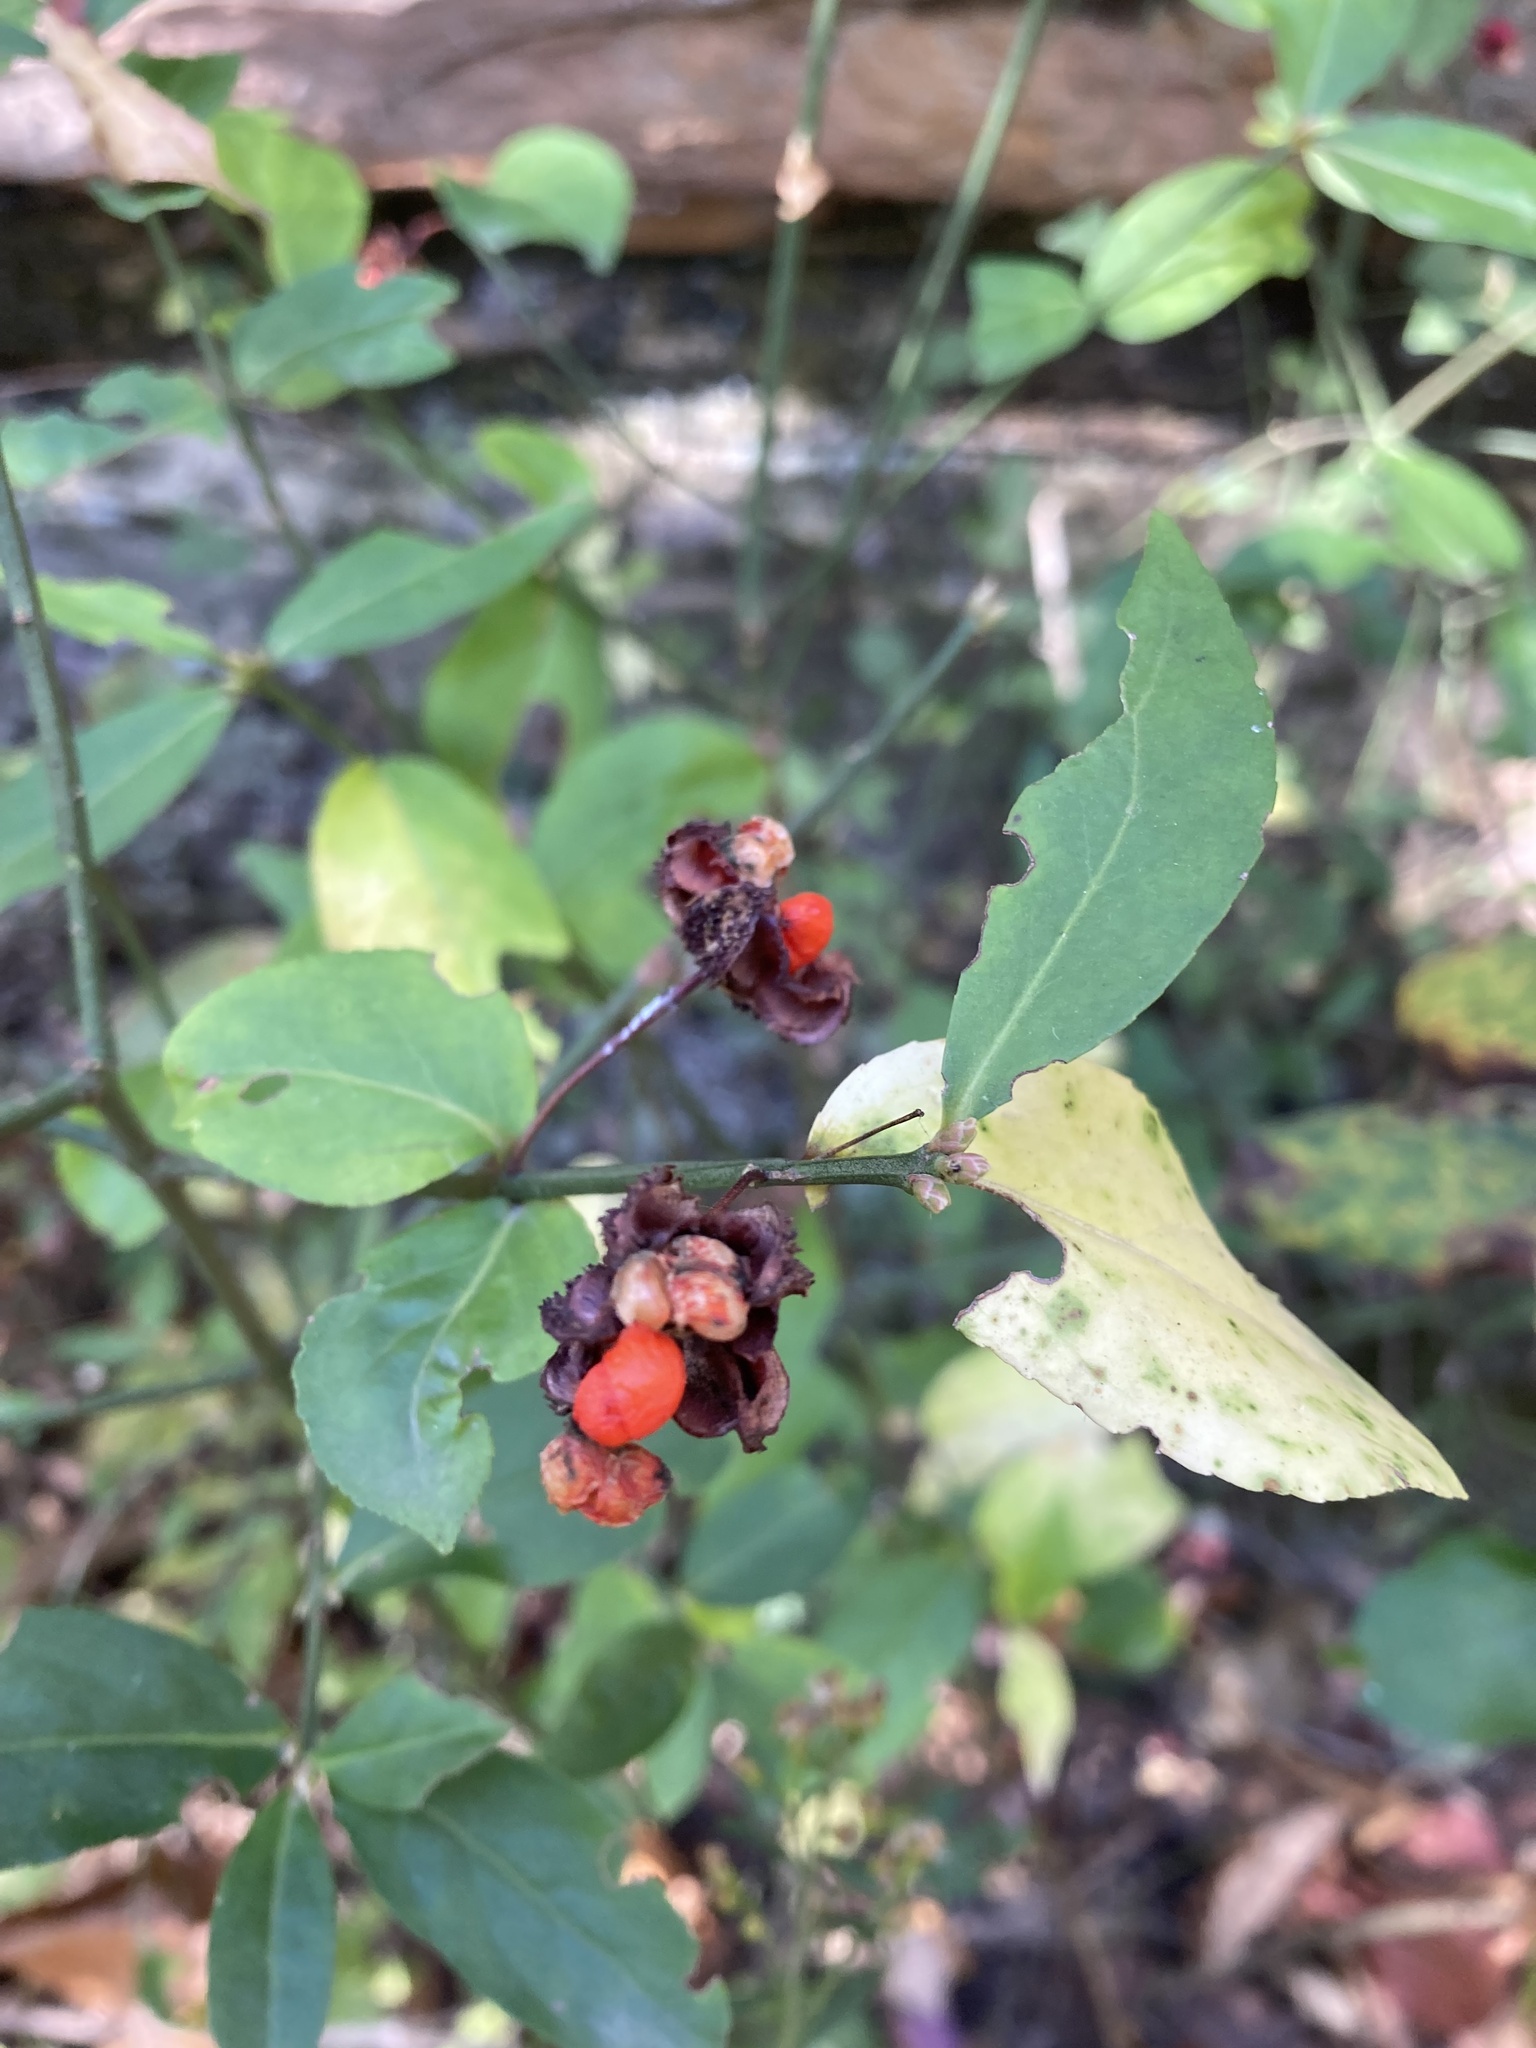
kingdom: Plantae
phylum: Tracheophyta
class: Magnoliopsida
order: Celastrales
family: Celastraceae
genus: Euonymus
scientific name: Euonymus americanus
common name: Bursting-heart
